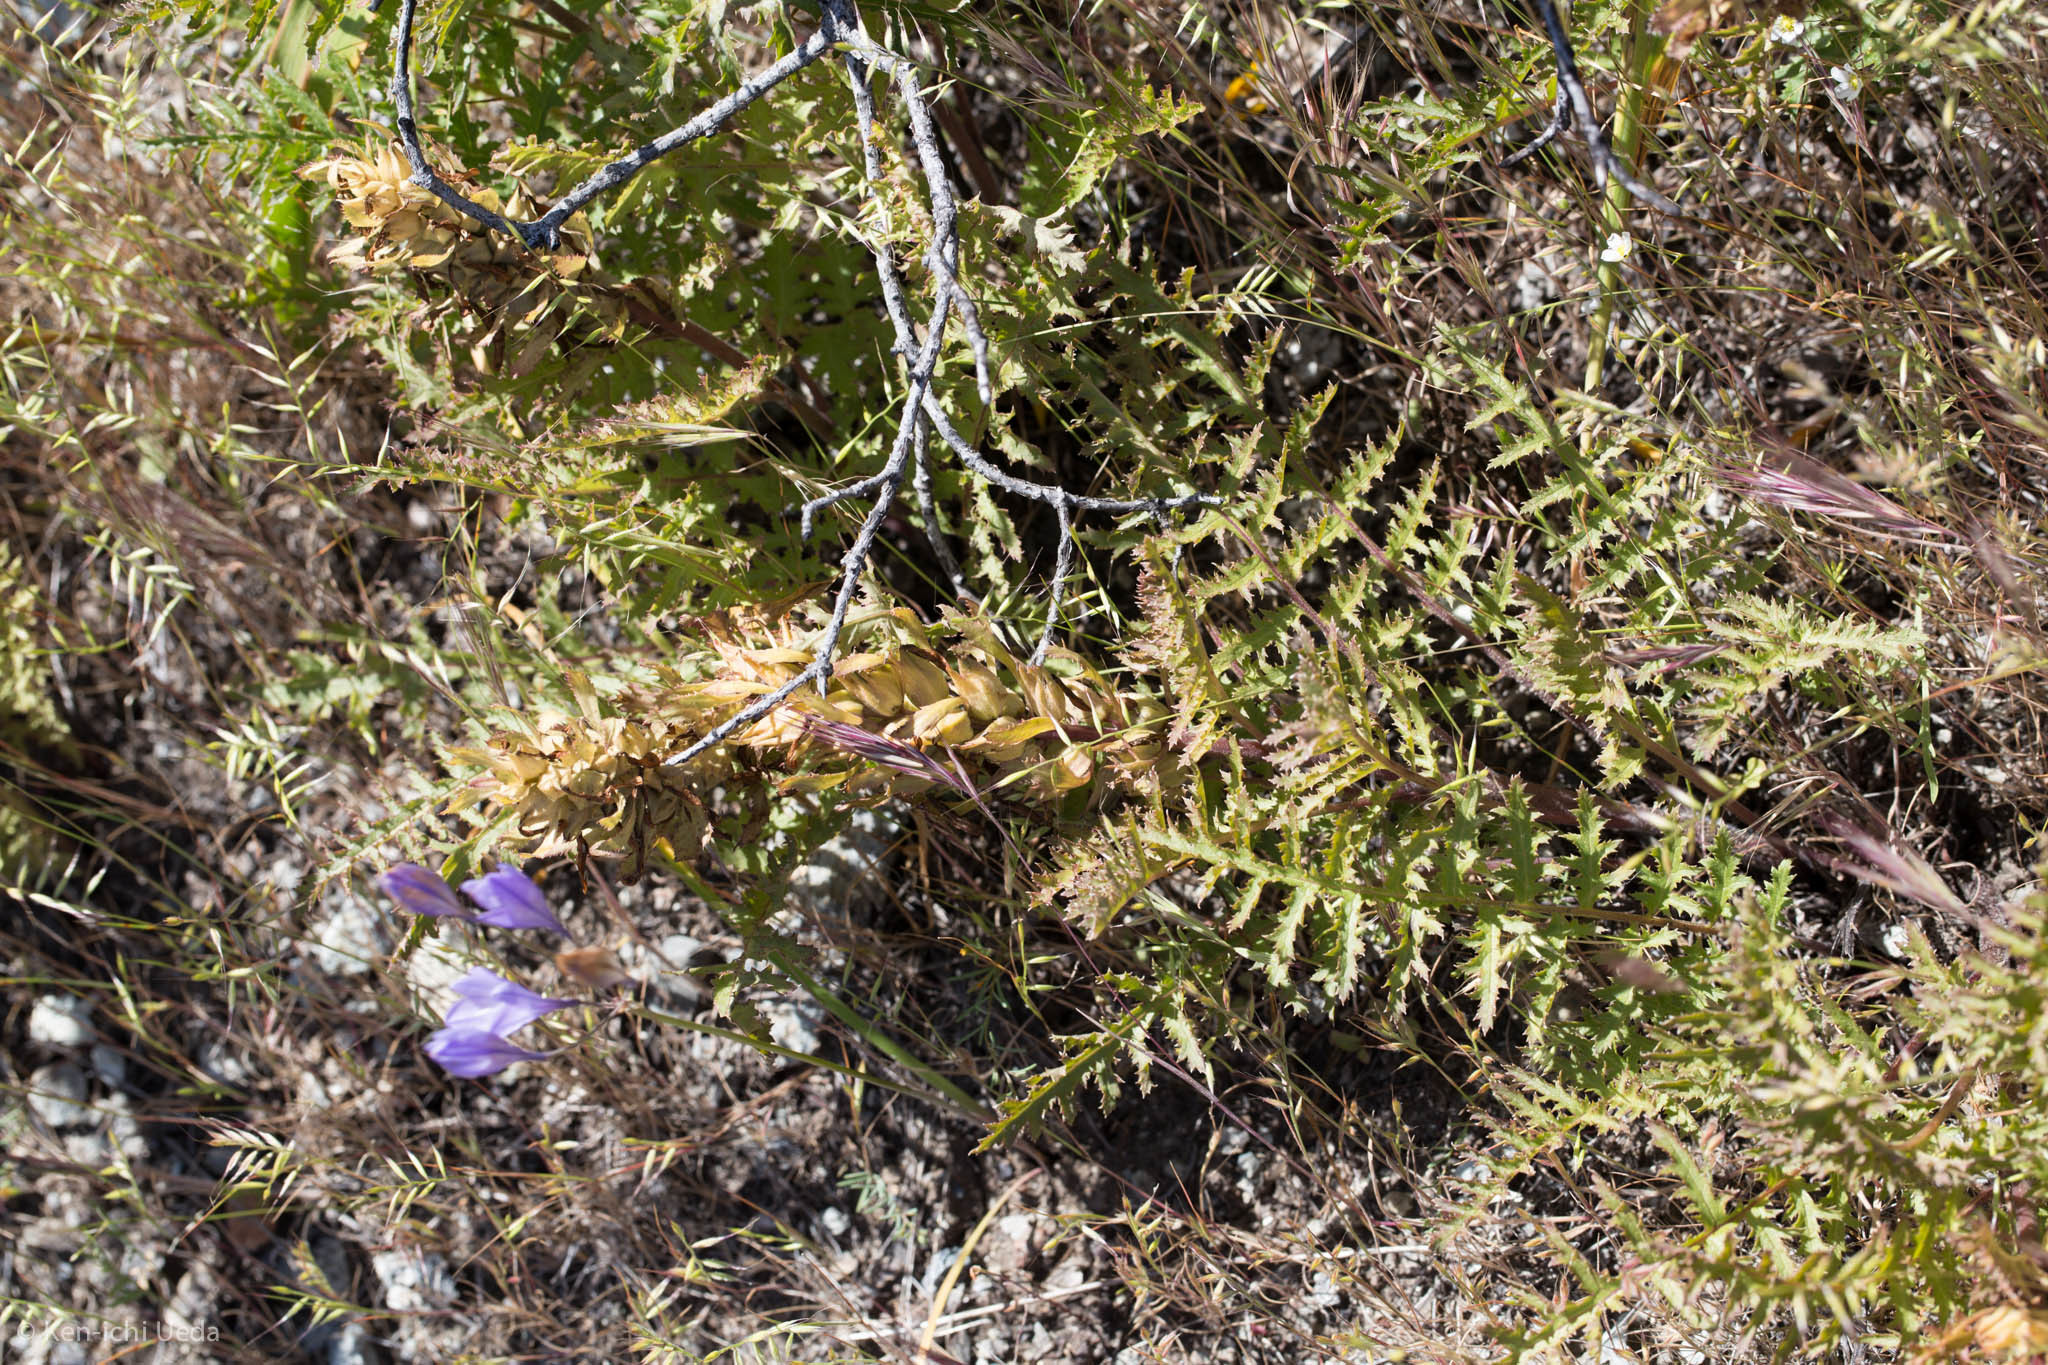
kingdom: Plantae
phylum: Tracheophyta
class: Magnoliopsida
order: Lamiales
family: Orobanchaceae
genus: Pedicularis
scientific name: Pedicularis densiflora
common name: Indian warrior
